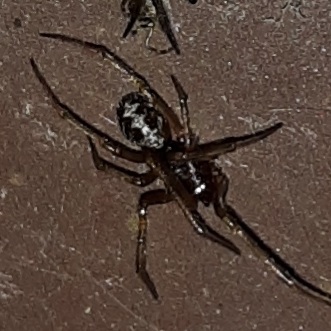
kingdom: Animalia
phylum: Arthropoda
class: Arachnida
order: Araneae
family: Theridiidae
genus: Steatoda
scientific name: Steatoda triangulosa
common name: Triangulate bud spider
